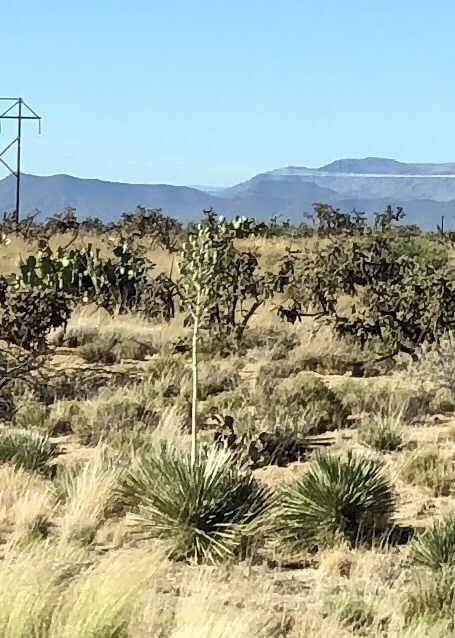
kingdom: Plantae
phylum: Tracheophyta
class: Liliopsida
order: Asparagales
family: Asparagaceae
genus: Yucca
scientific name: Yucca elata
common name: Palmella
